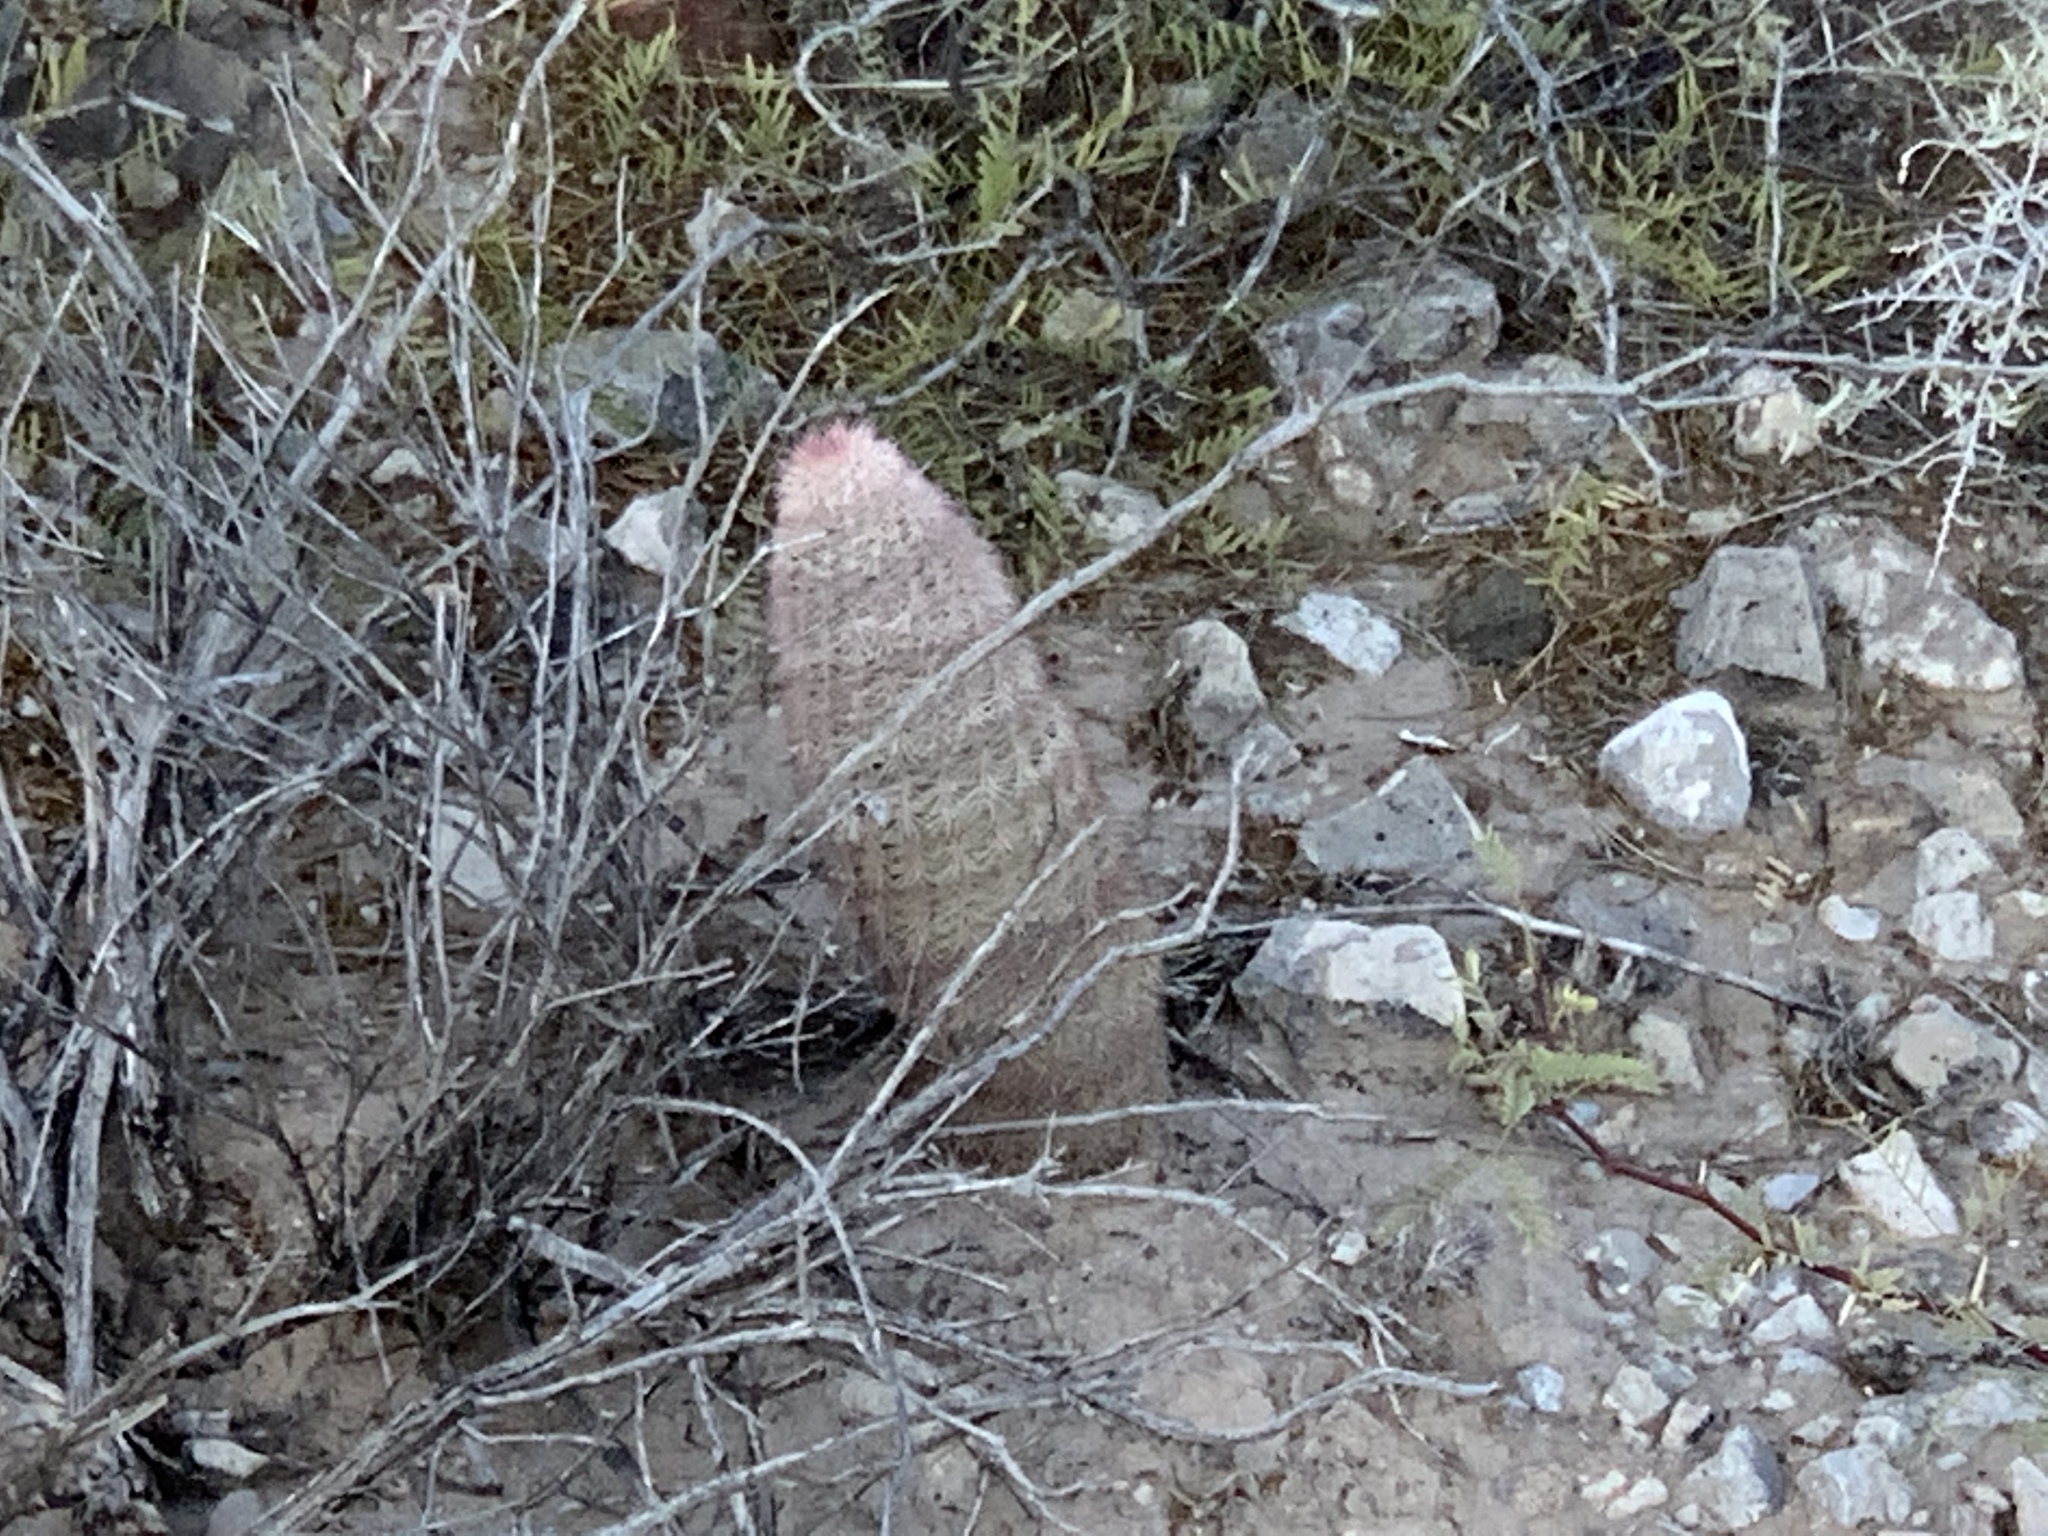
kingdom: Plantae
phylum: Tracheophyta
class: Magnoliopsida
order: Caryophyllales
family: Cactaceae
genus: Echinocereus
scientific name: Echinocereus dasyacanthus
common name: Spiny hedgehog cactus
